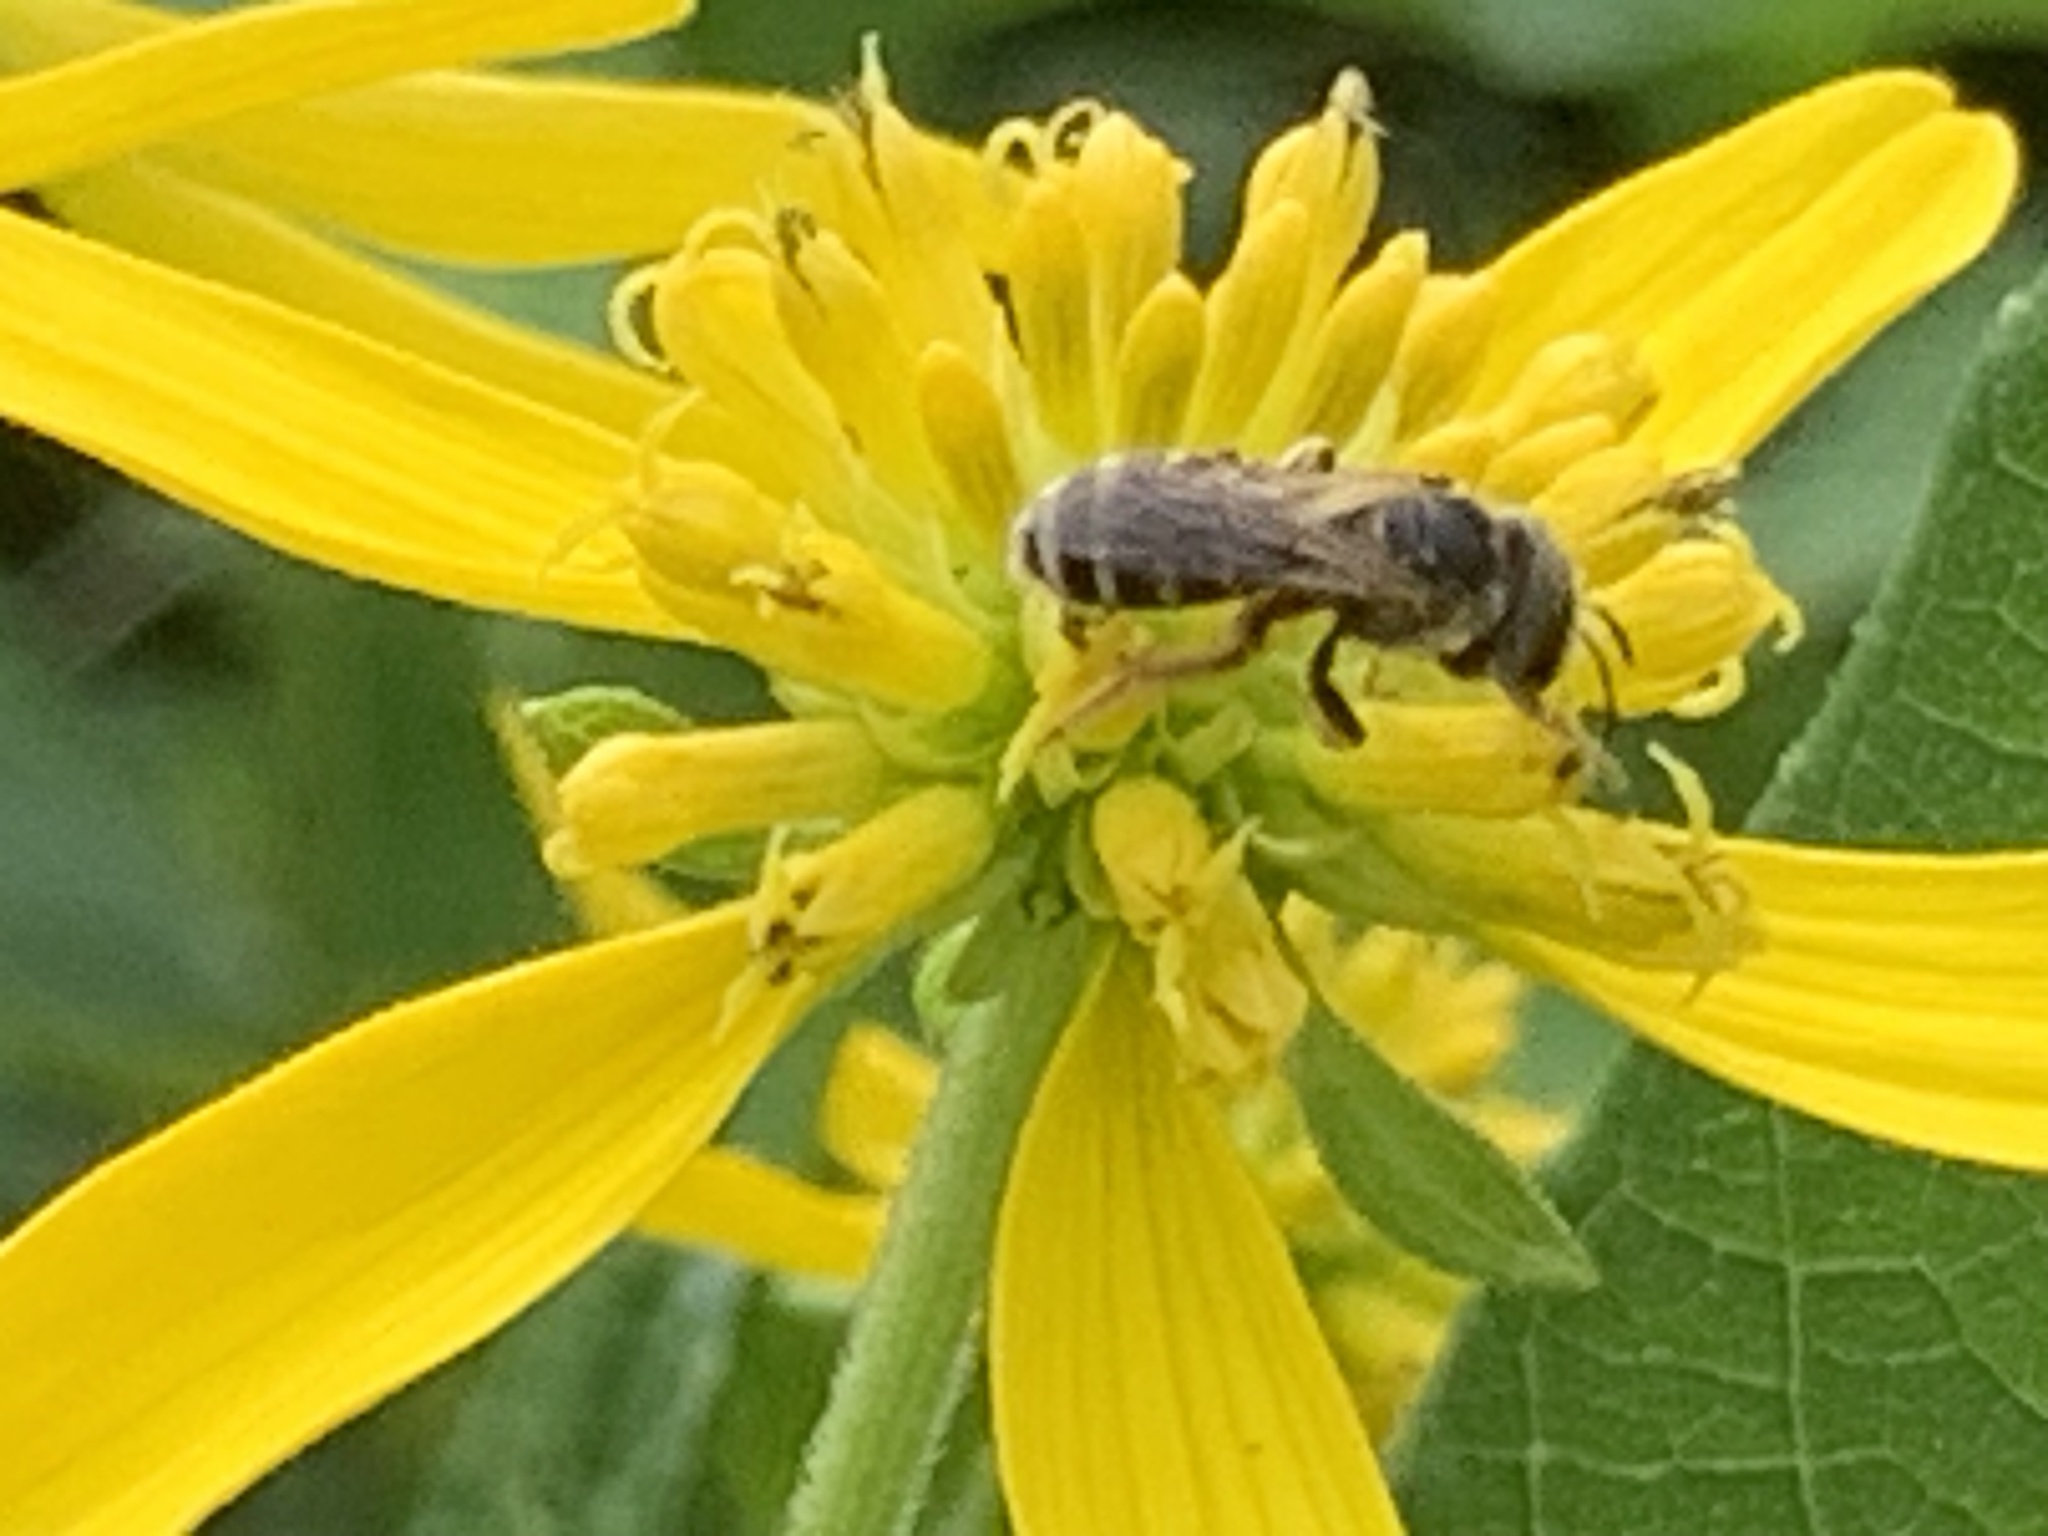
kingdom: Animalia
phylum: Arthropoda
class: Insecta
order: Hymenoptera
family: Halictidae
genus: Halictus
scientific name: Halictus ligatus
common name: Ligated furrow bee
